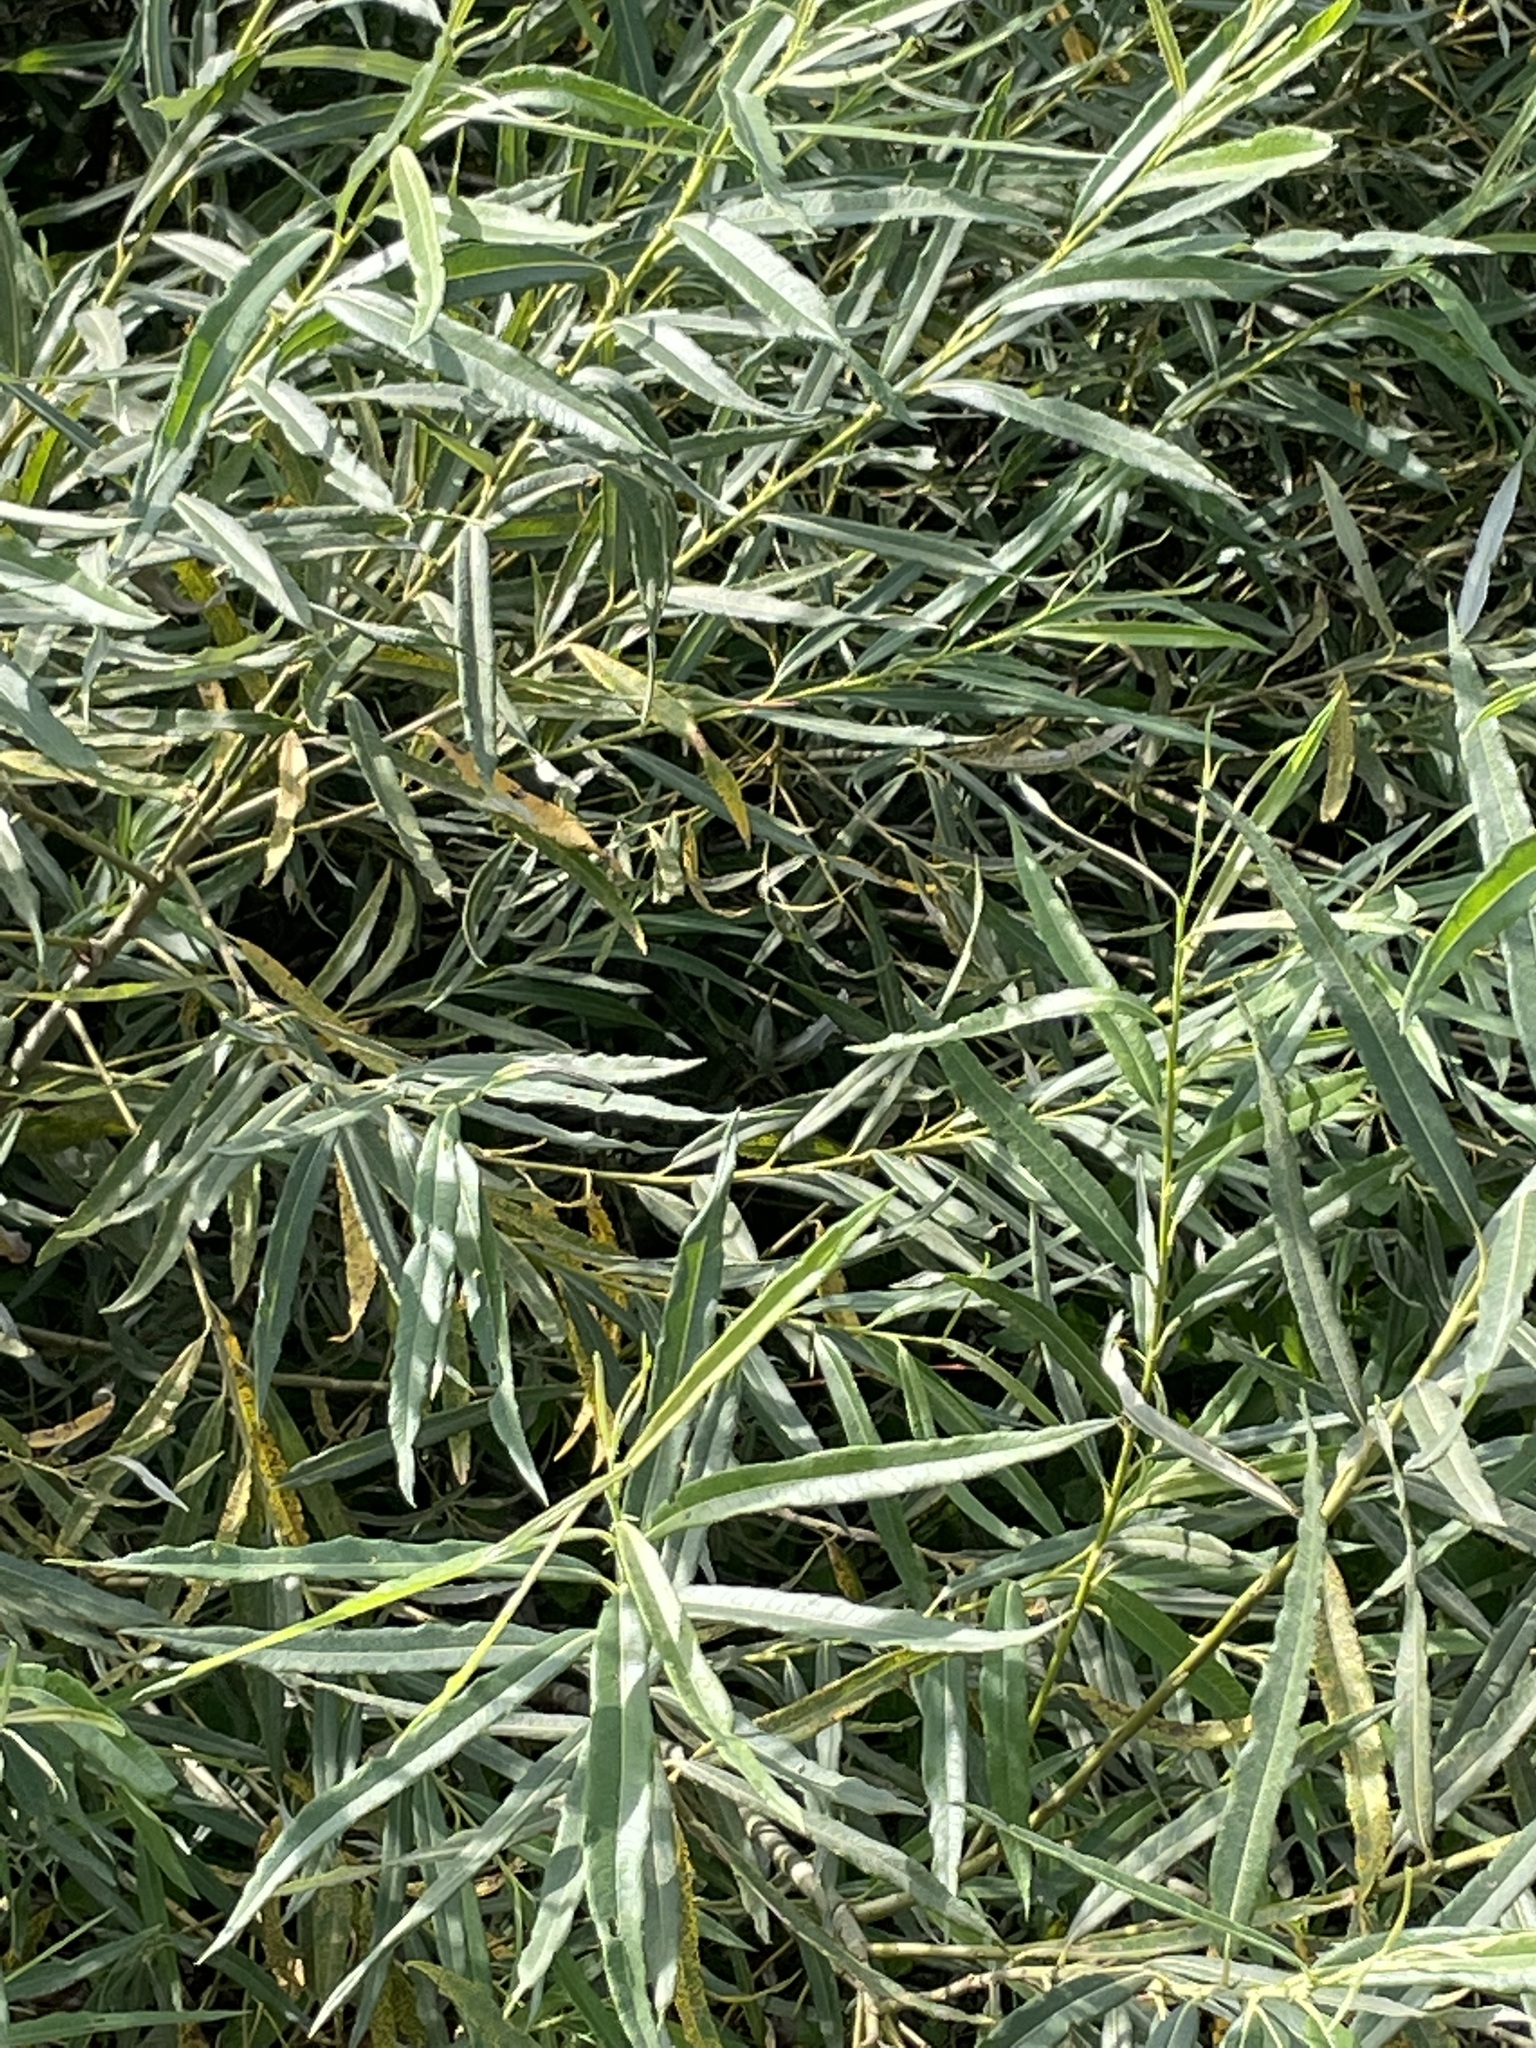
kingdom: Plantae
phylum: Tracheophyta
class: Magnoliopsida
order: Malpighiales
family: Salicaceae
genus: Salix
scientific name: Salix viminalis
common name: Osier
